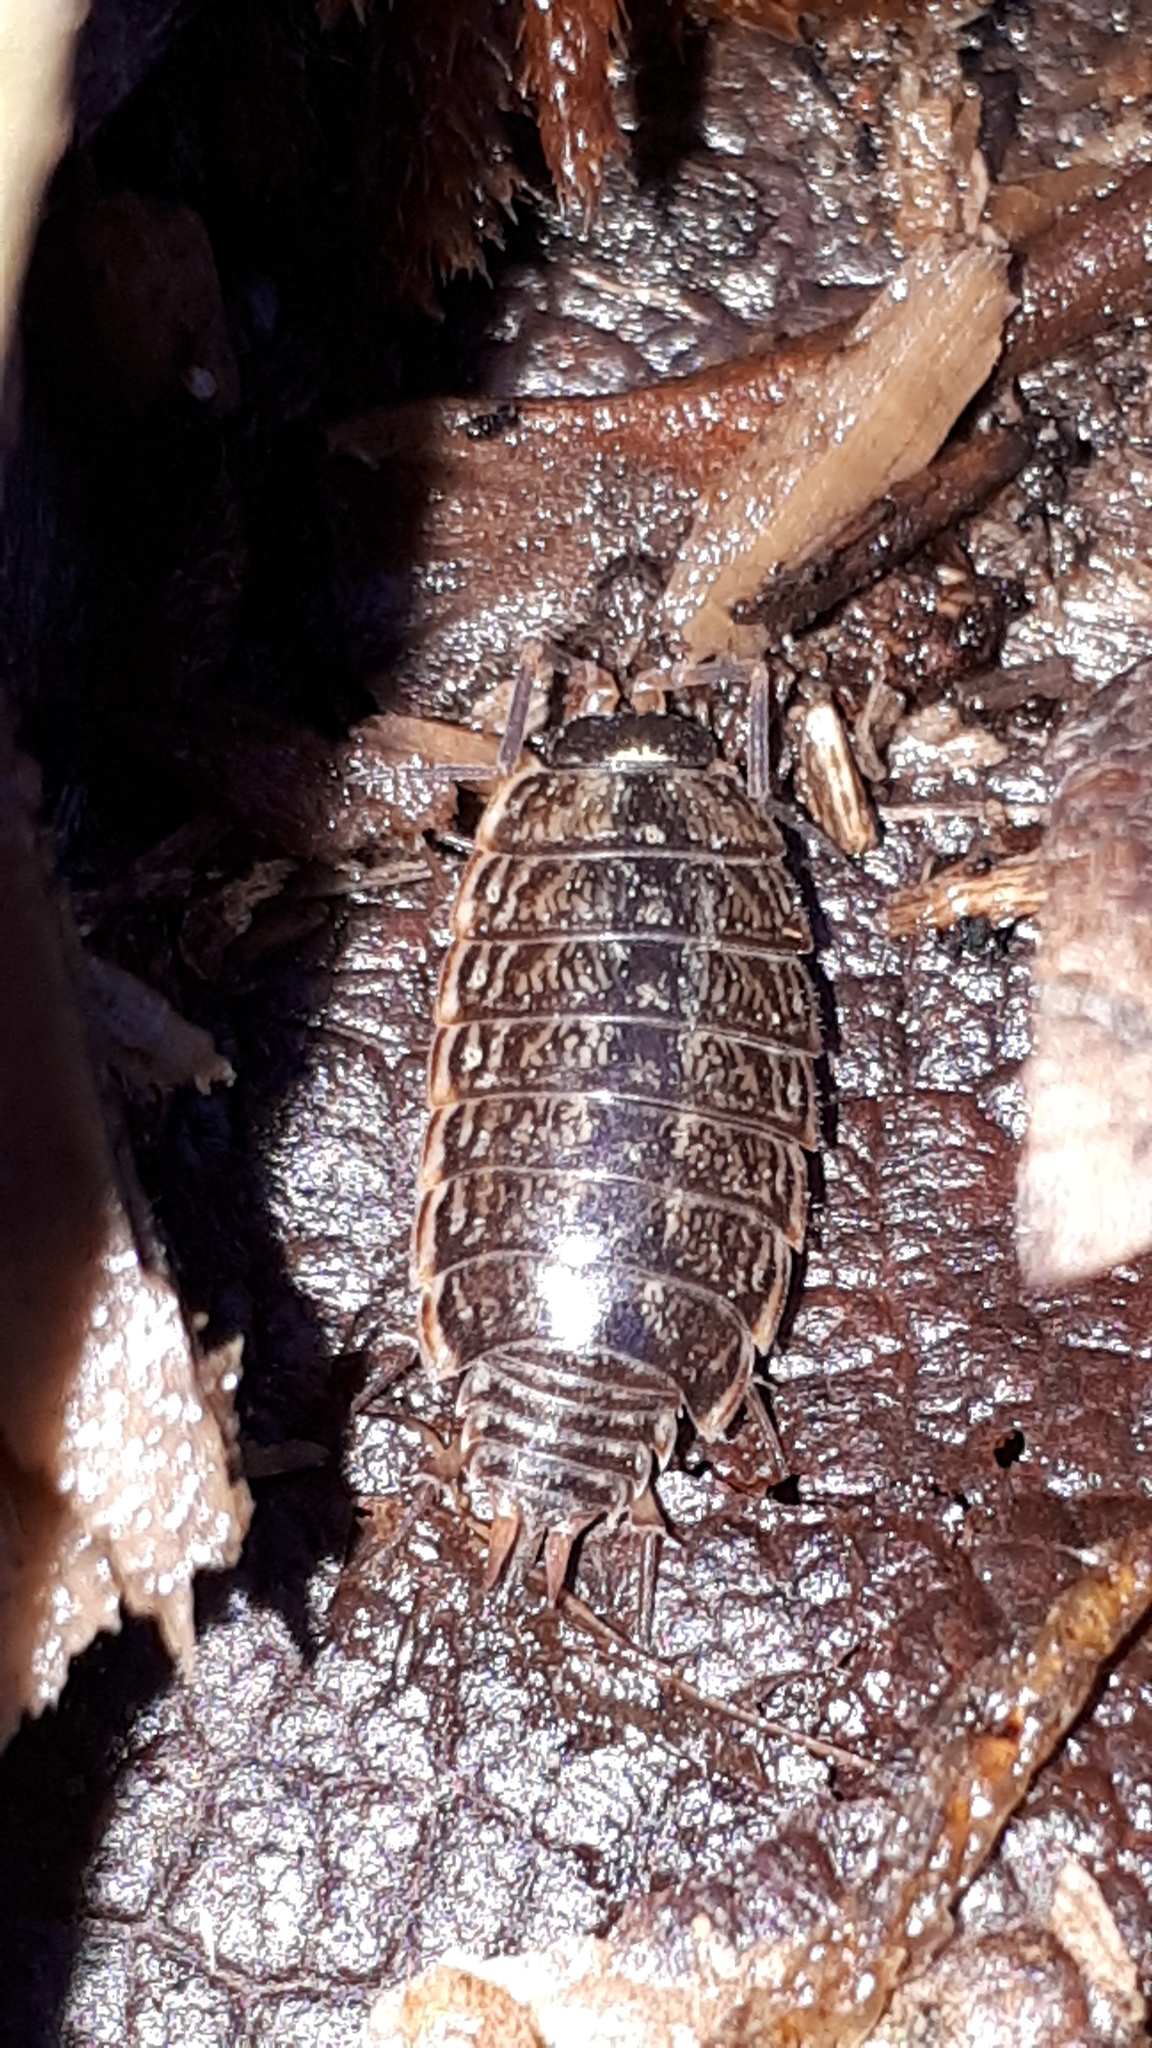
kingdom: Animalia
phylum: Arthropoda
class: Malacostraca
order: Isopoda
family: Philosciidae
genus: Philoscia
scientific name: Philoscia muscorum
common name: Common striped woodlouse
